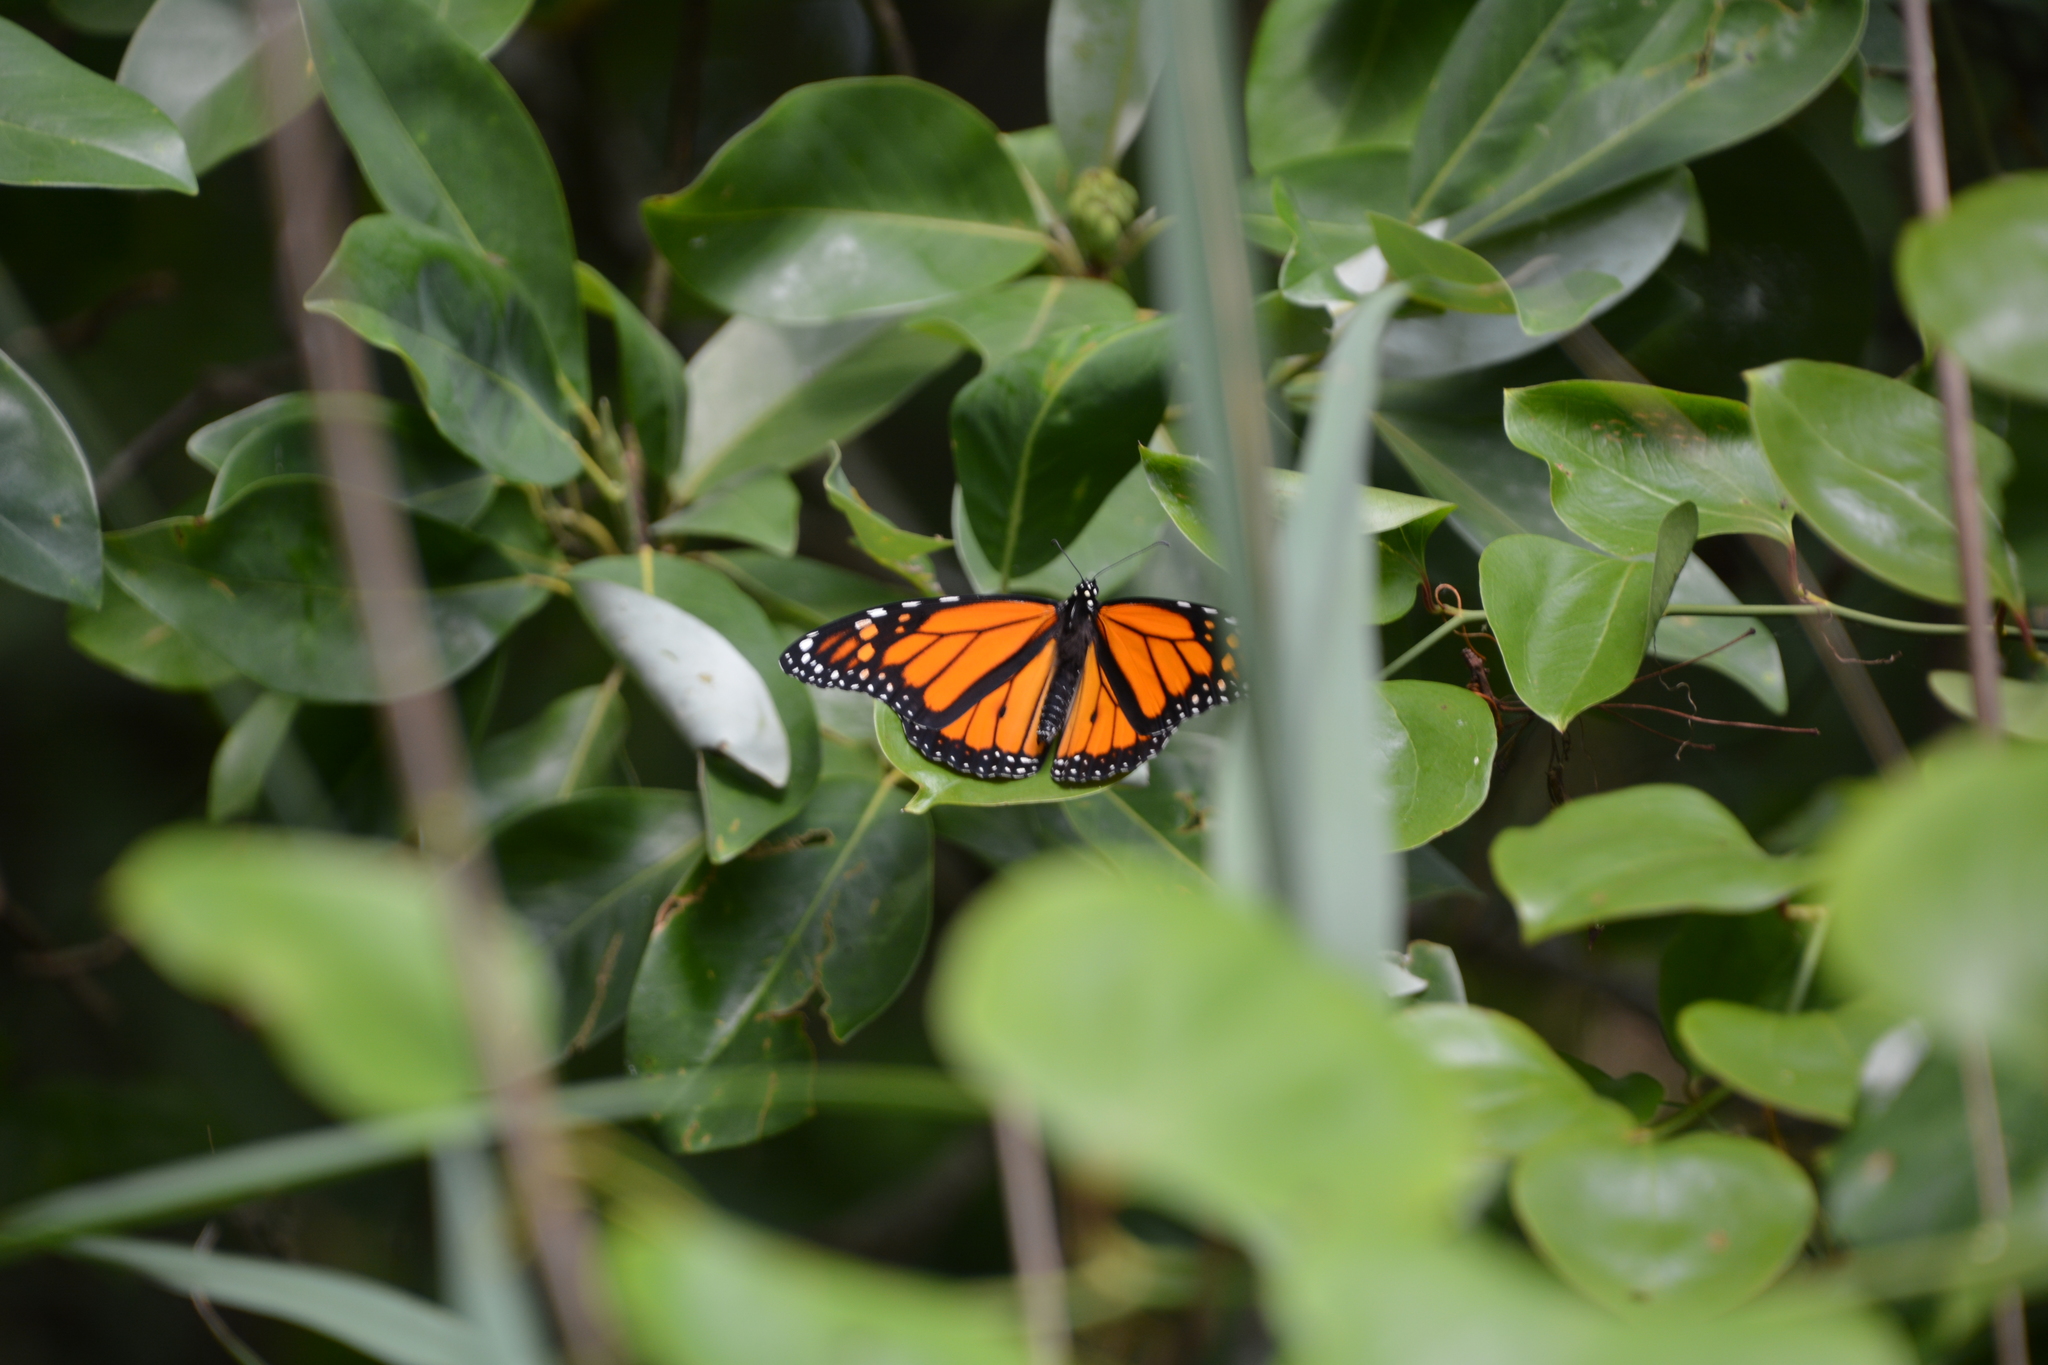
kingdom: Animalia
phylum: Arthropoda
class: Insecta
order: Lepidoptera
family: Nymphalidae
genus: Danaus
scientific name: Danaus plexippus
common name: Monarch
